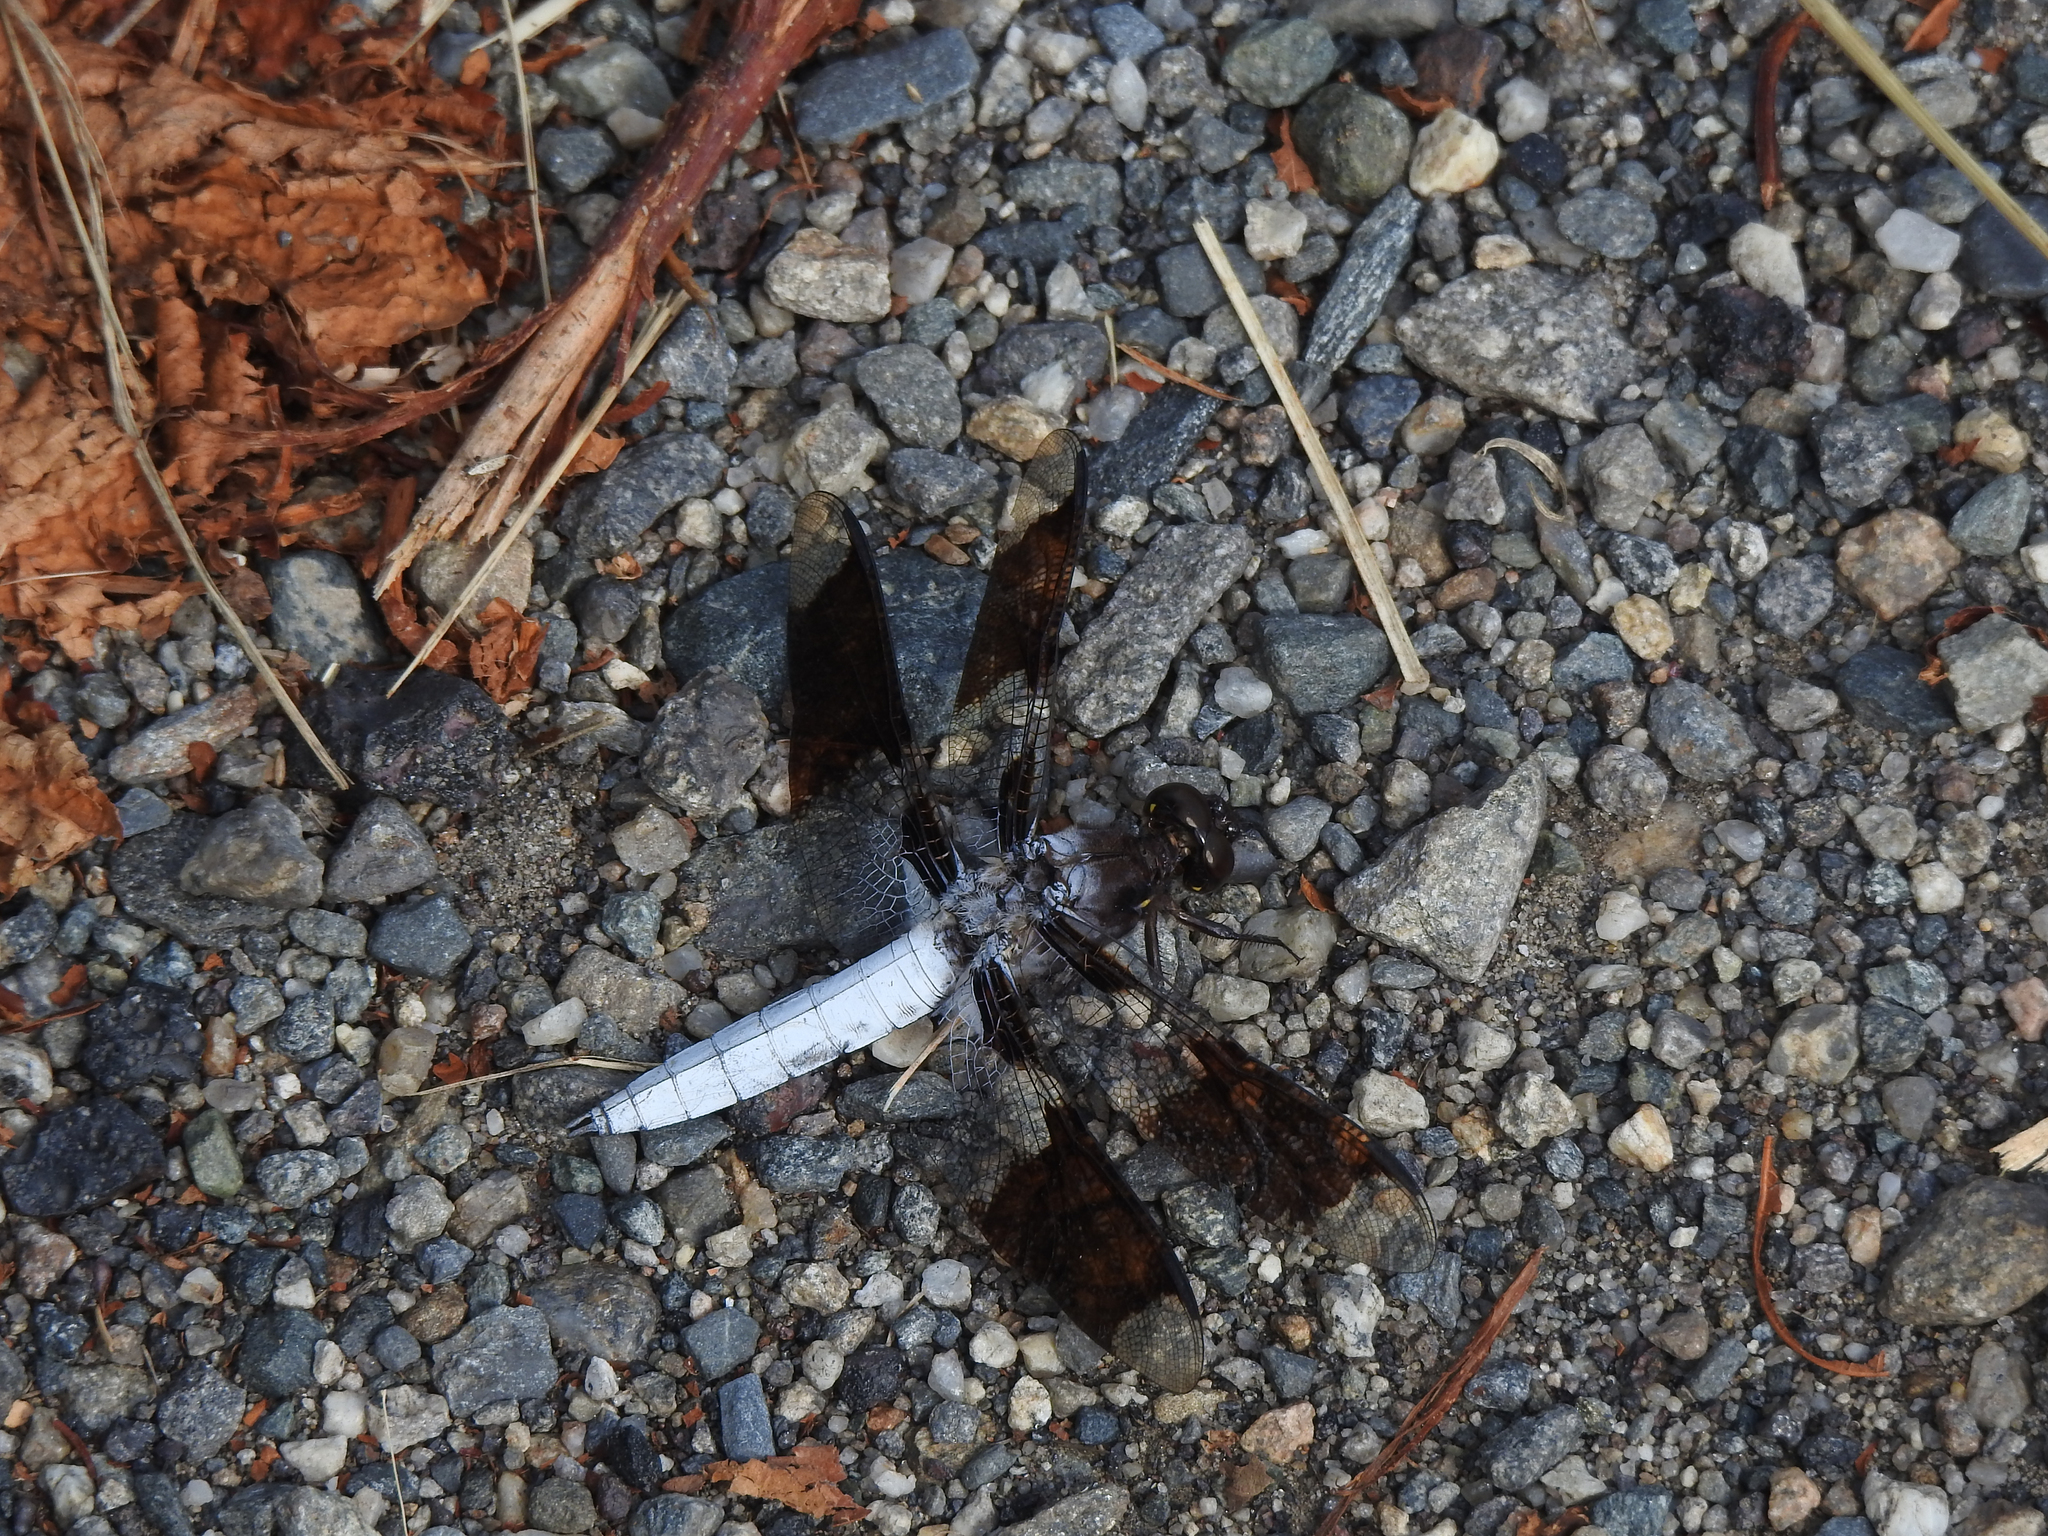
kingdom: Animalia
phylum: Arthropoda
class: Insecta
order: Odonata
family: Libellulidae
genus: Plathemis
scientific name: Plathemis lydia
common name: Common whitetail
